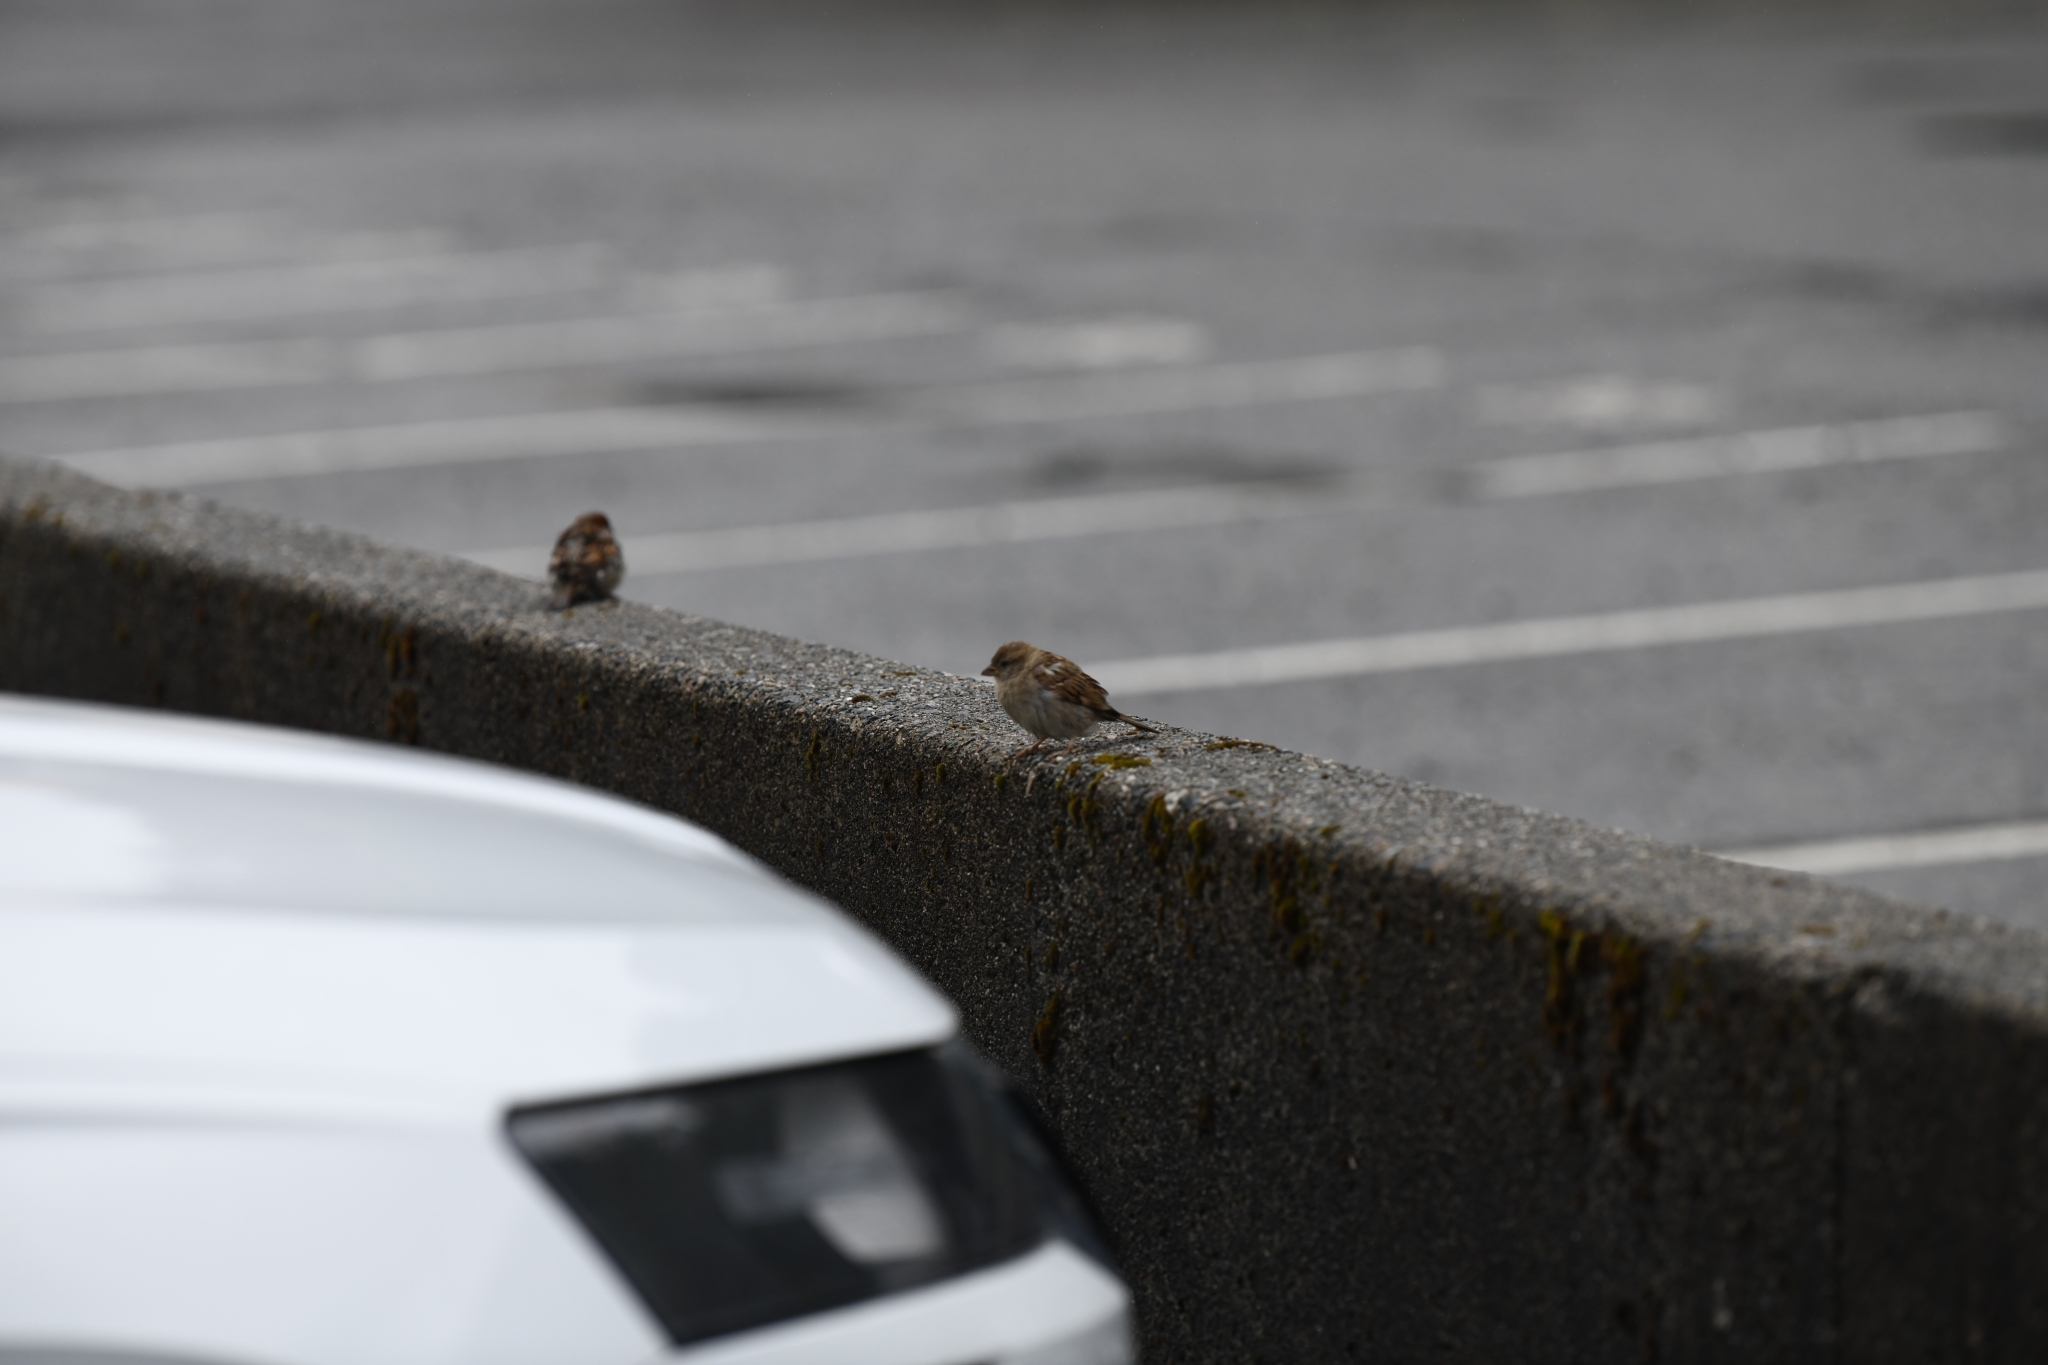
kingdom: Animalia
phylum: Chordata
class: Aves
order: Passeriformes
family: Passeridae
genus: Passer
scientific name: Passer domesticus
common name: House sparrow
